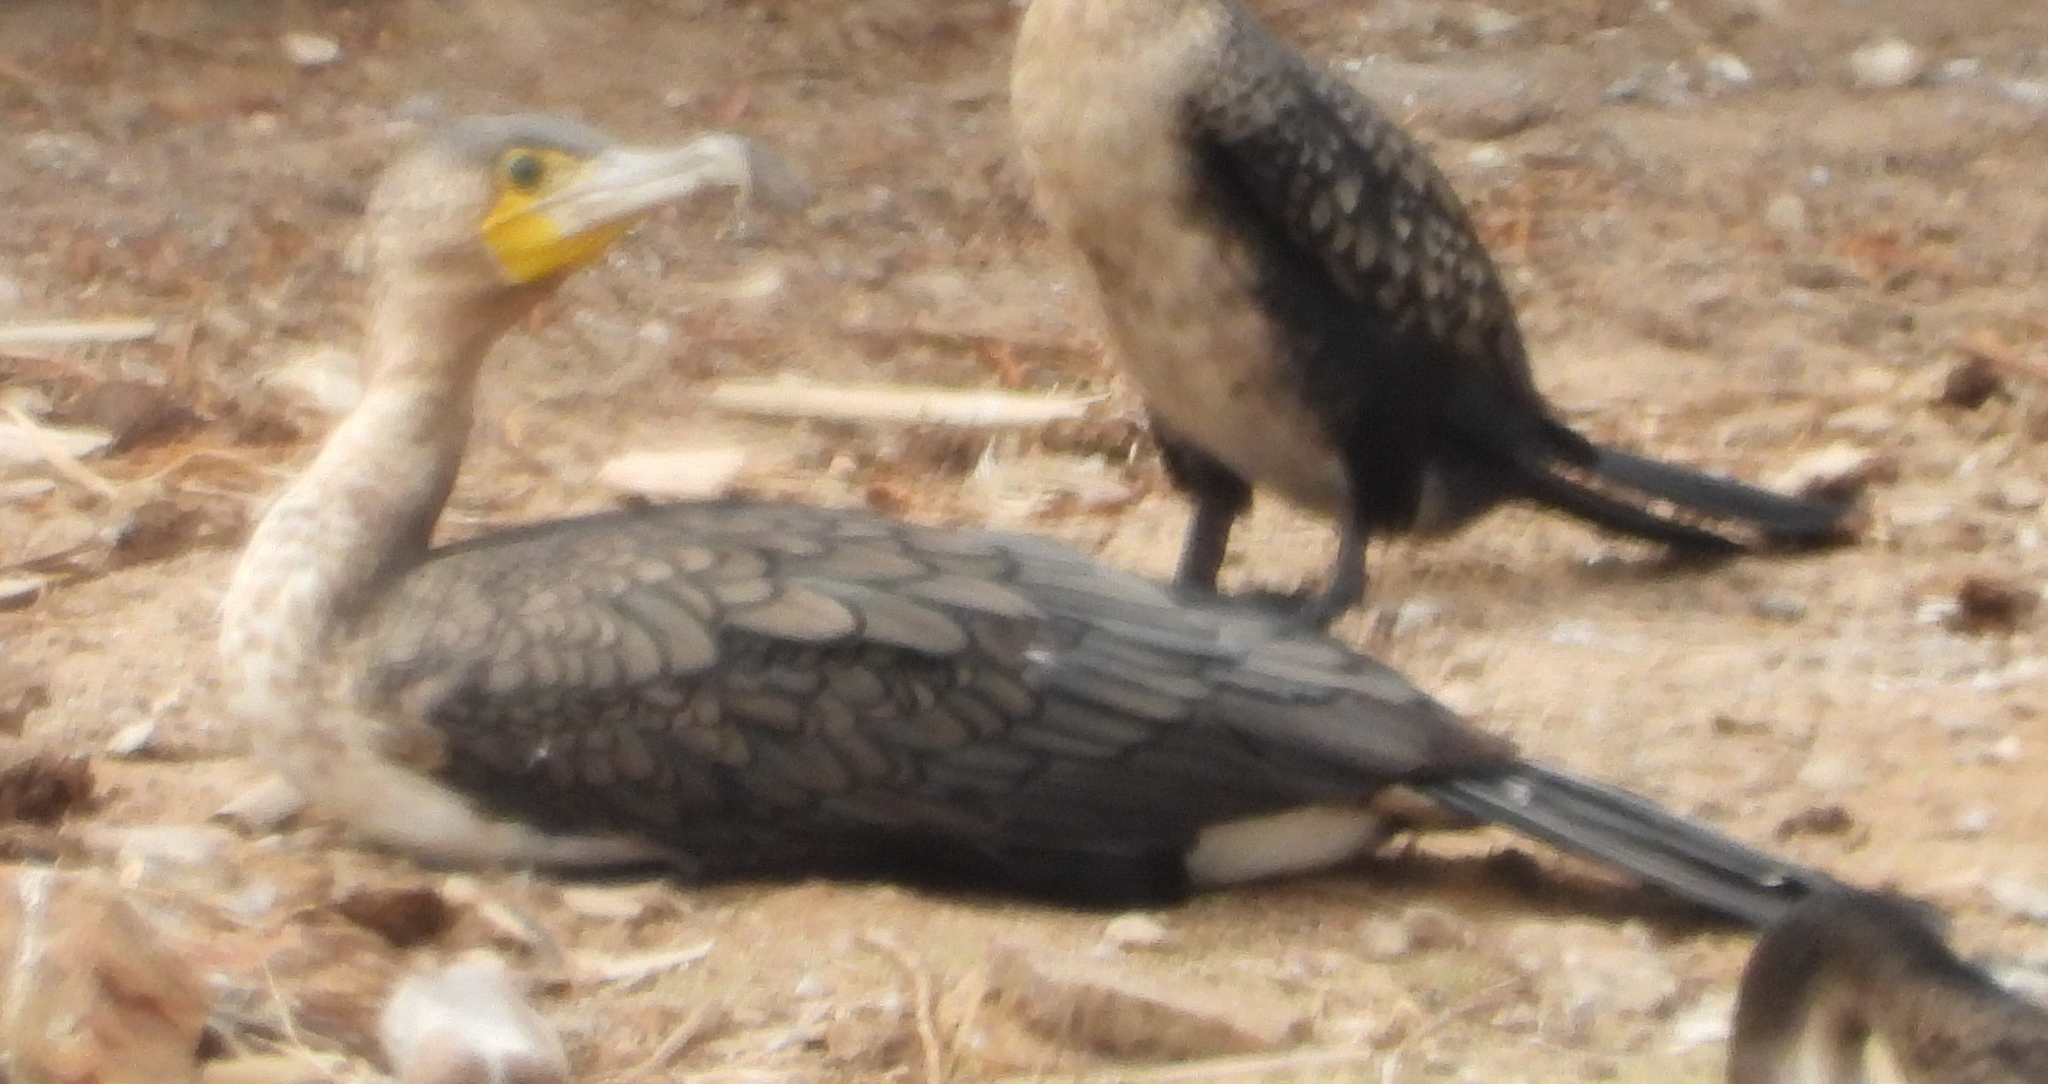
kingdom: Animalia
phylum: Chordata
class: Aves
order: Suliformes
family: Phalacrocoracidae
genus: Phalacrocorax
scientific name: Phalacrocorax carbo
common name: Great cormorant
